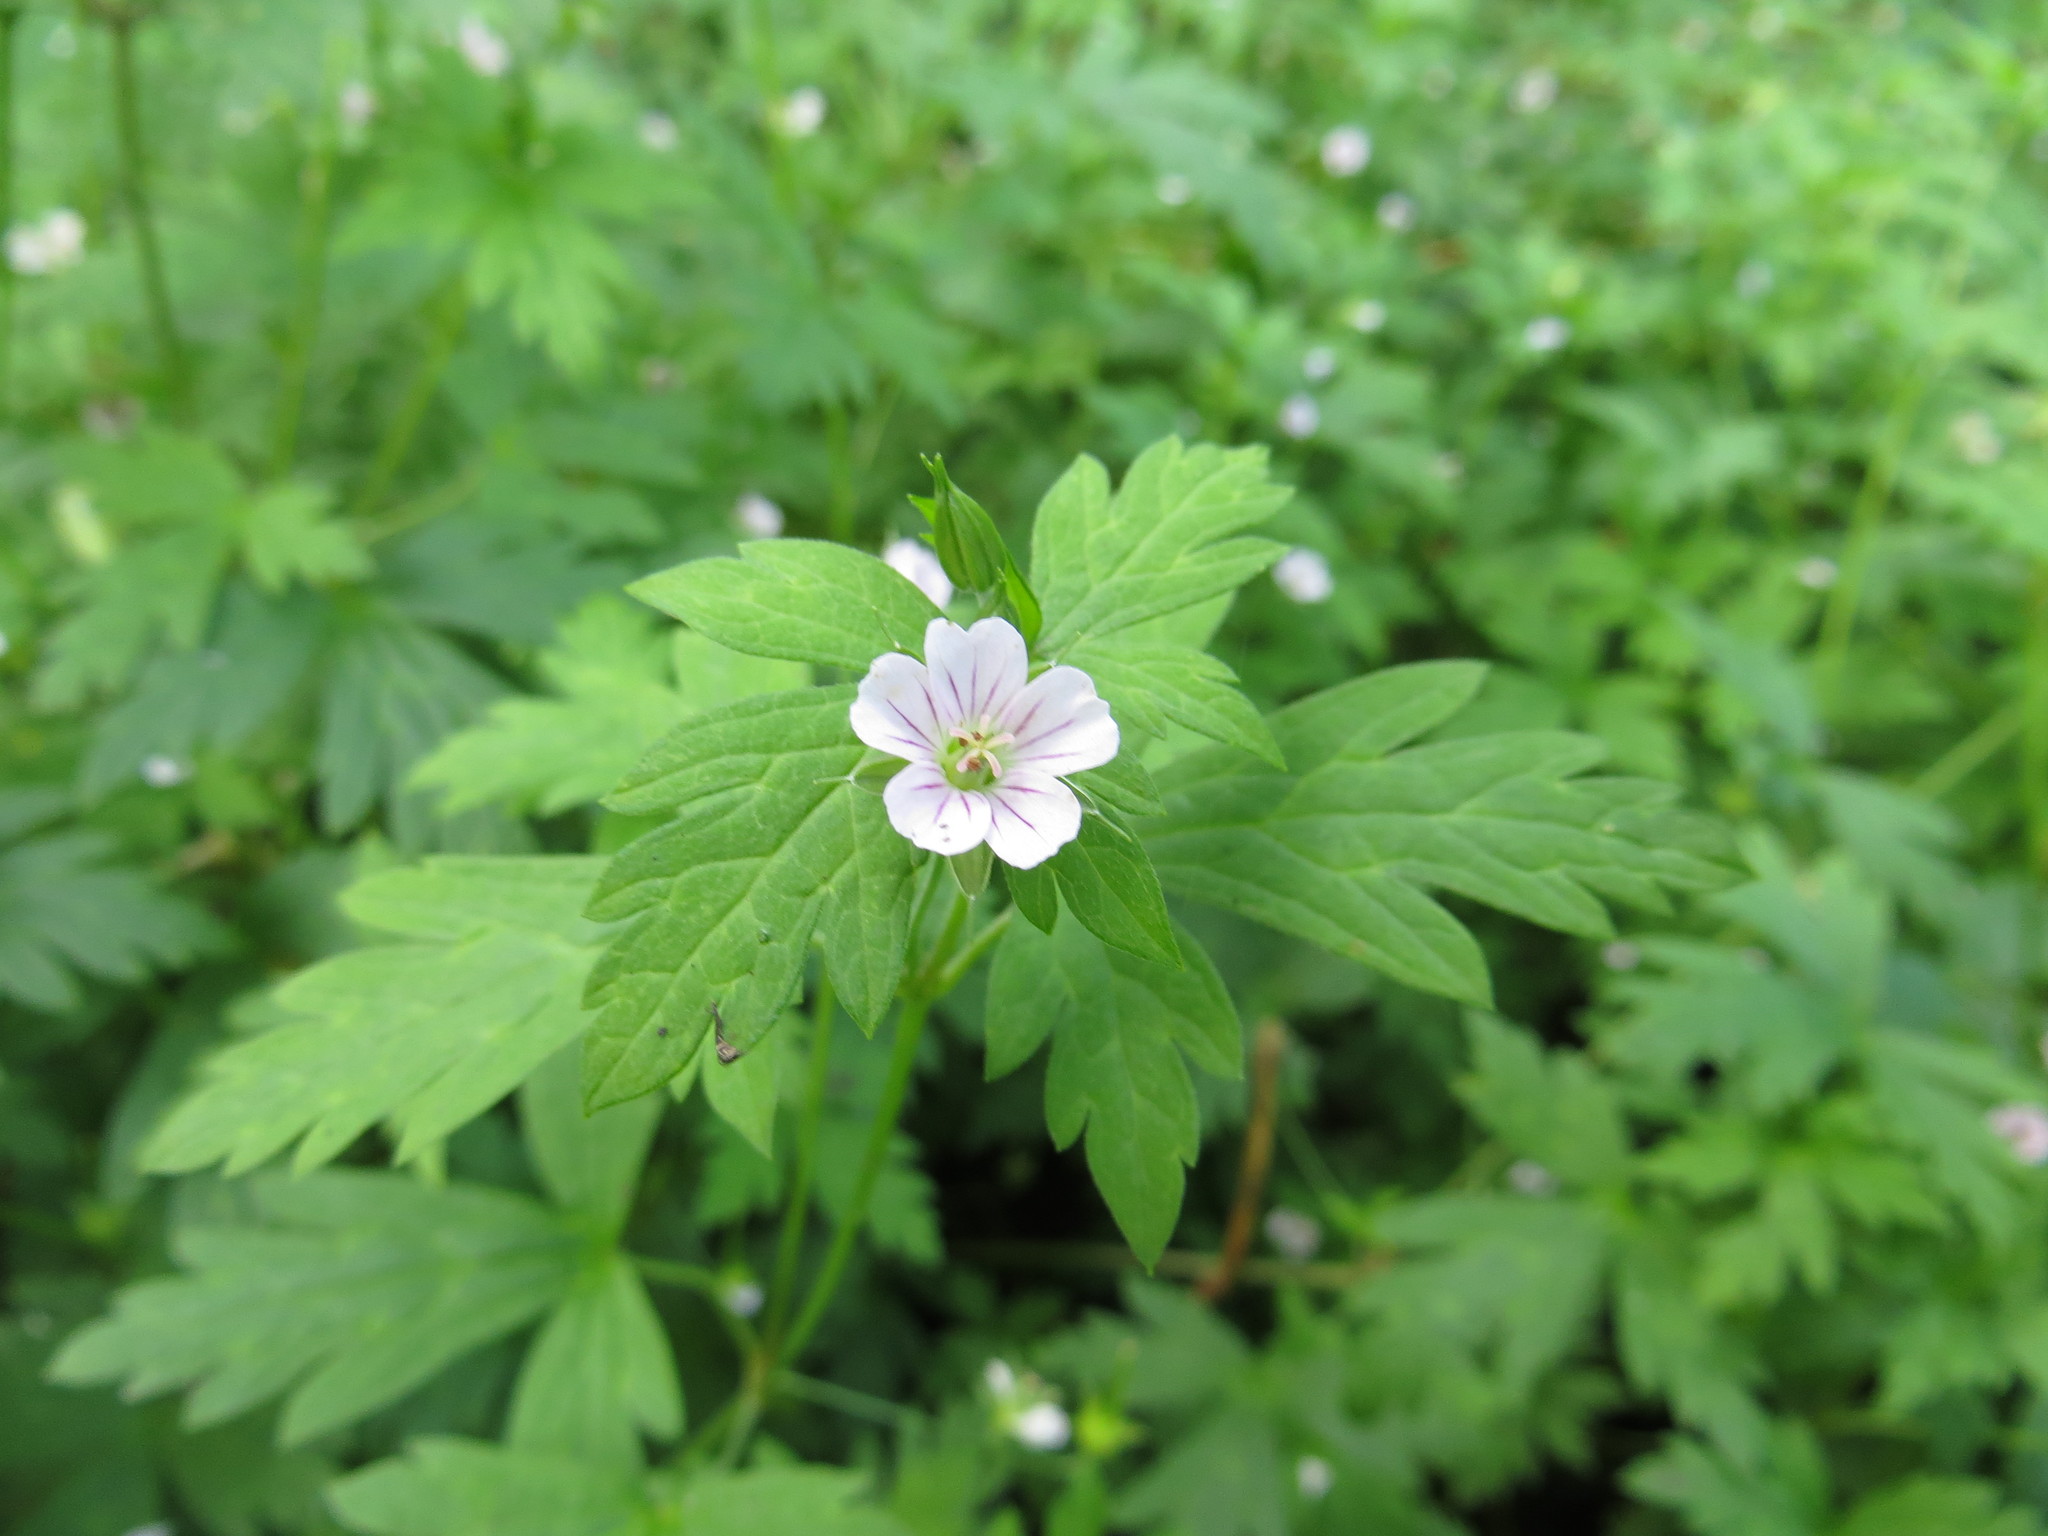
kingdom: Plantae
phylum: Tracheophyta
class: Magnoliopsida
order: Geraniales
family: Geraniaceae
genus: Geranium
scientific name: Geranium sibiricum
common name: Siberian crane's-bill
